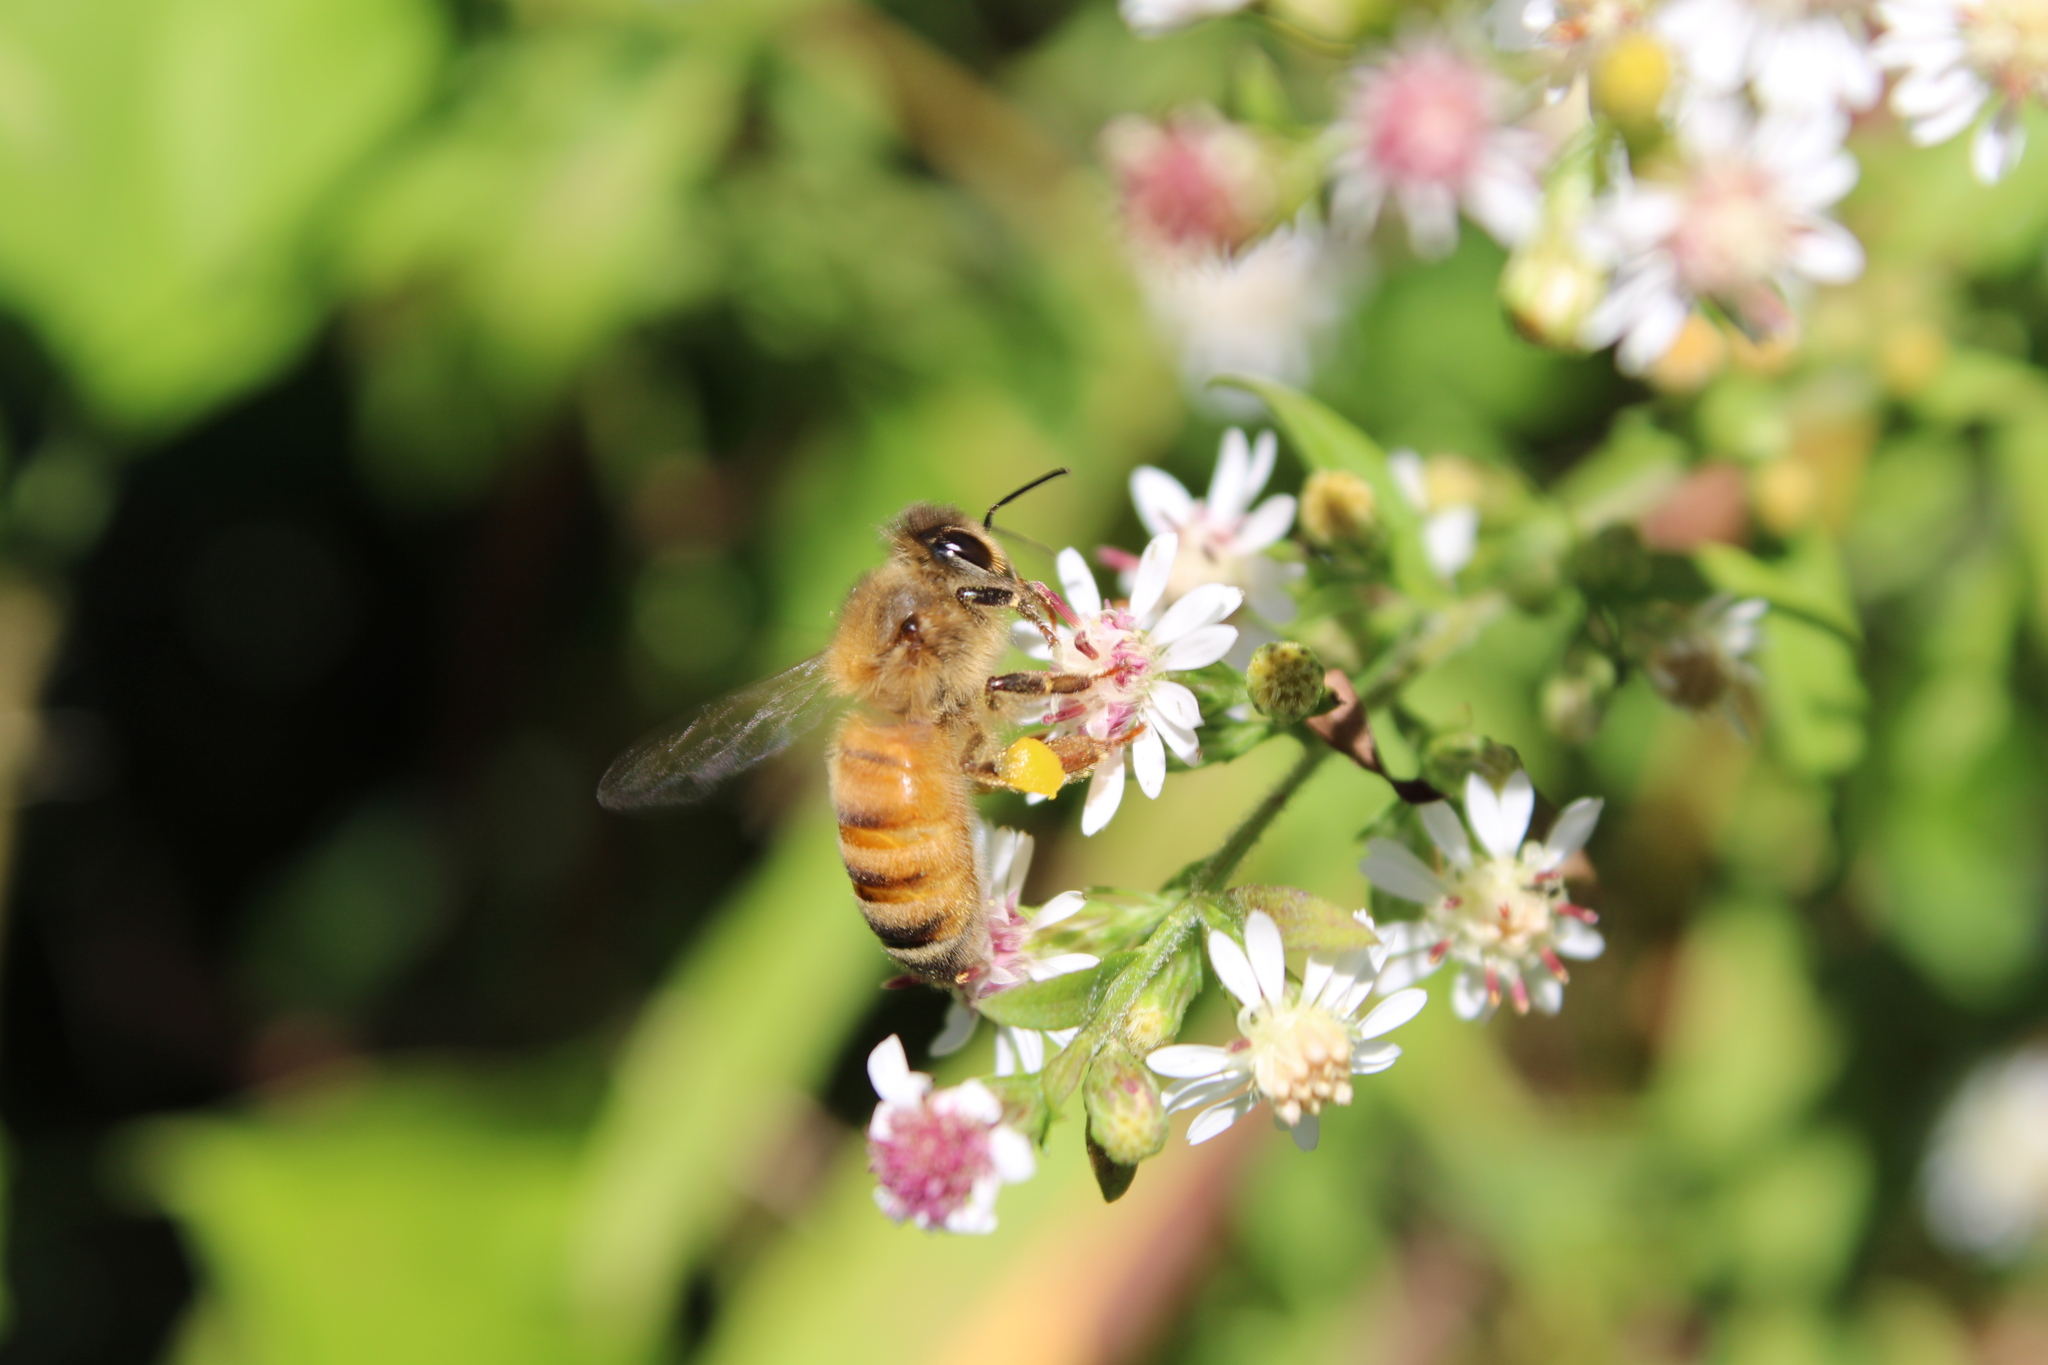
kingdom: Animalia
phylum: Arthropoda
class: Insecta
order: Hymenoptera
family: Apidae
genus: Apis
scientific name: Apis mellifera
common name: Honey bee
